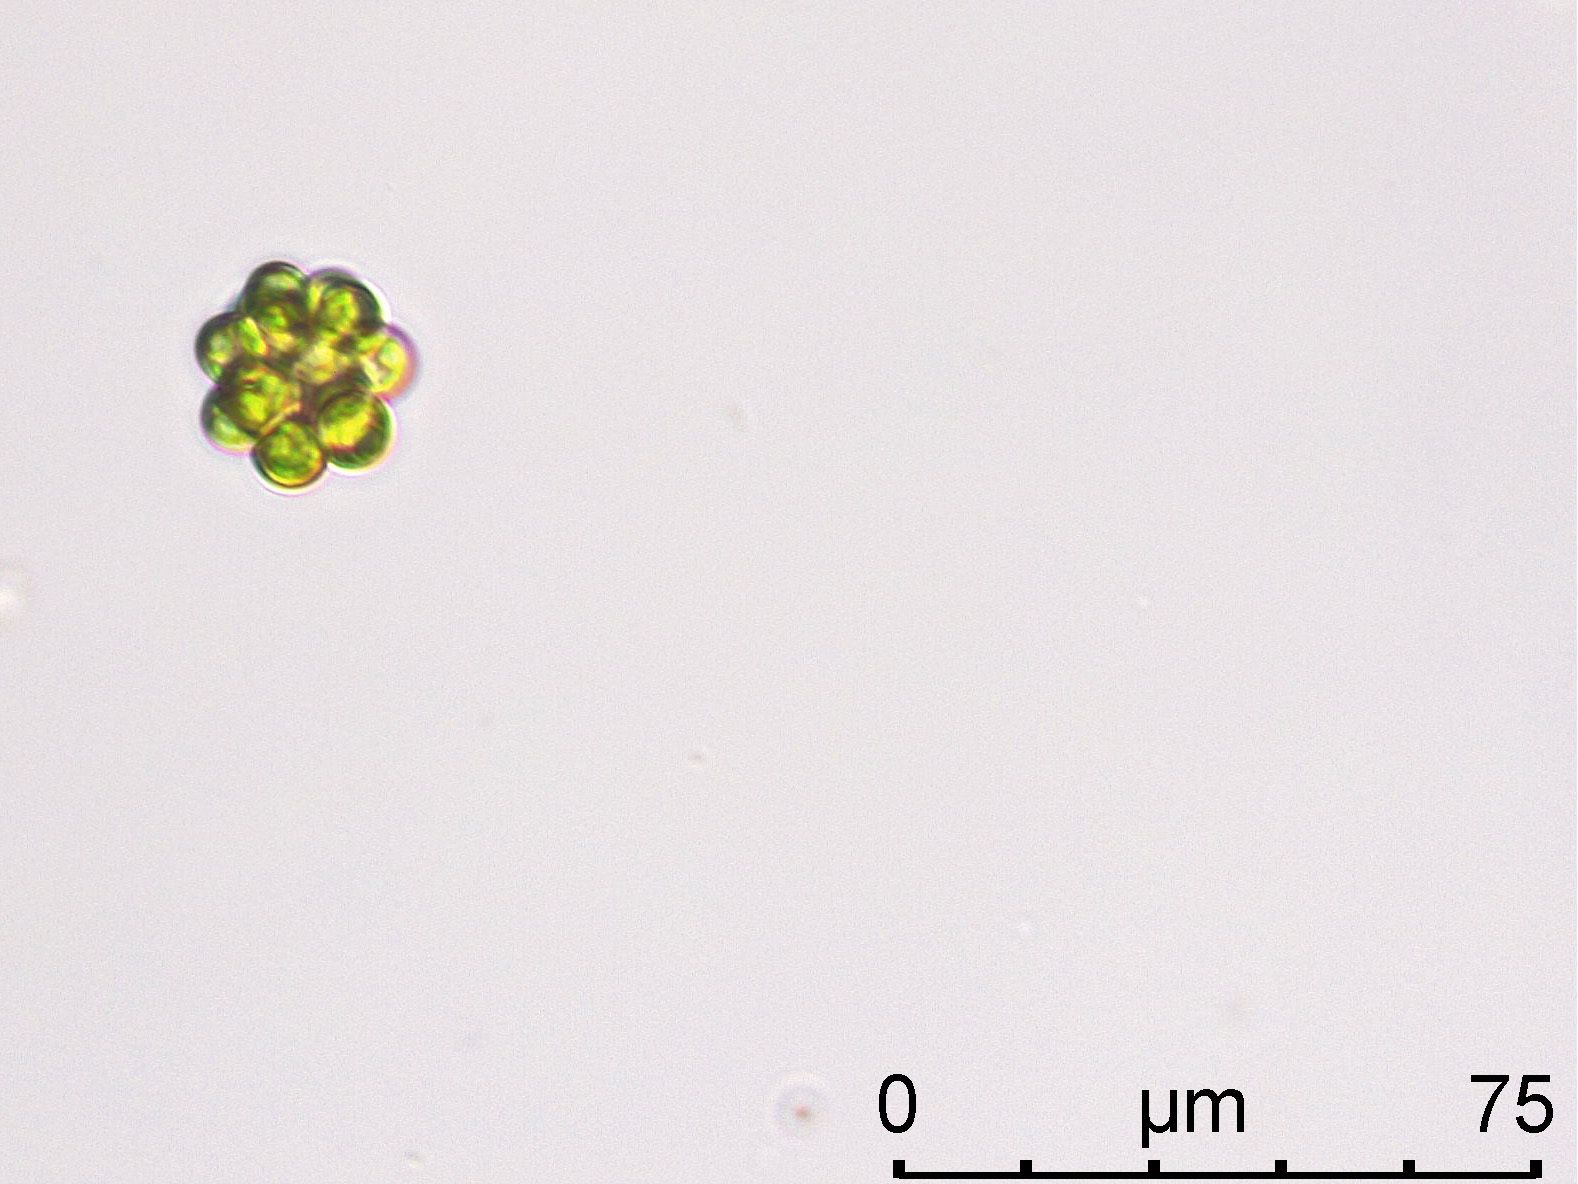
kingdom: Plantae
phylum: Chlorophyta
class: Chlorophyceae
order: Sphaeropleales
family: Scenedesmaceae
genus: Coelastrum
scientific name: Coelastrum microporum
